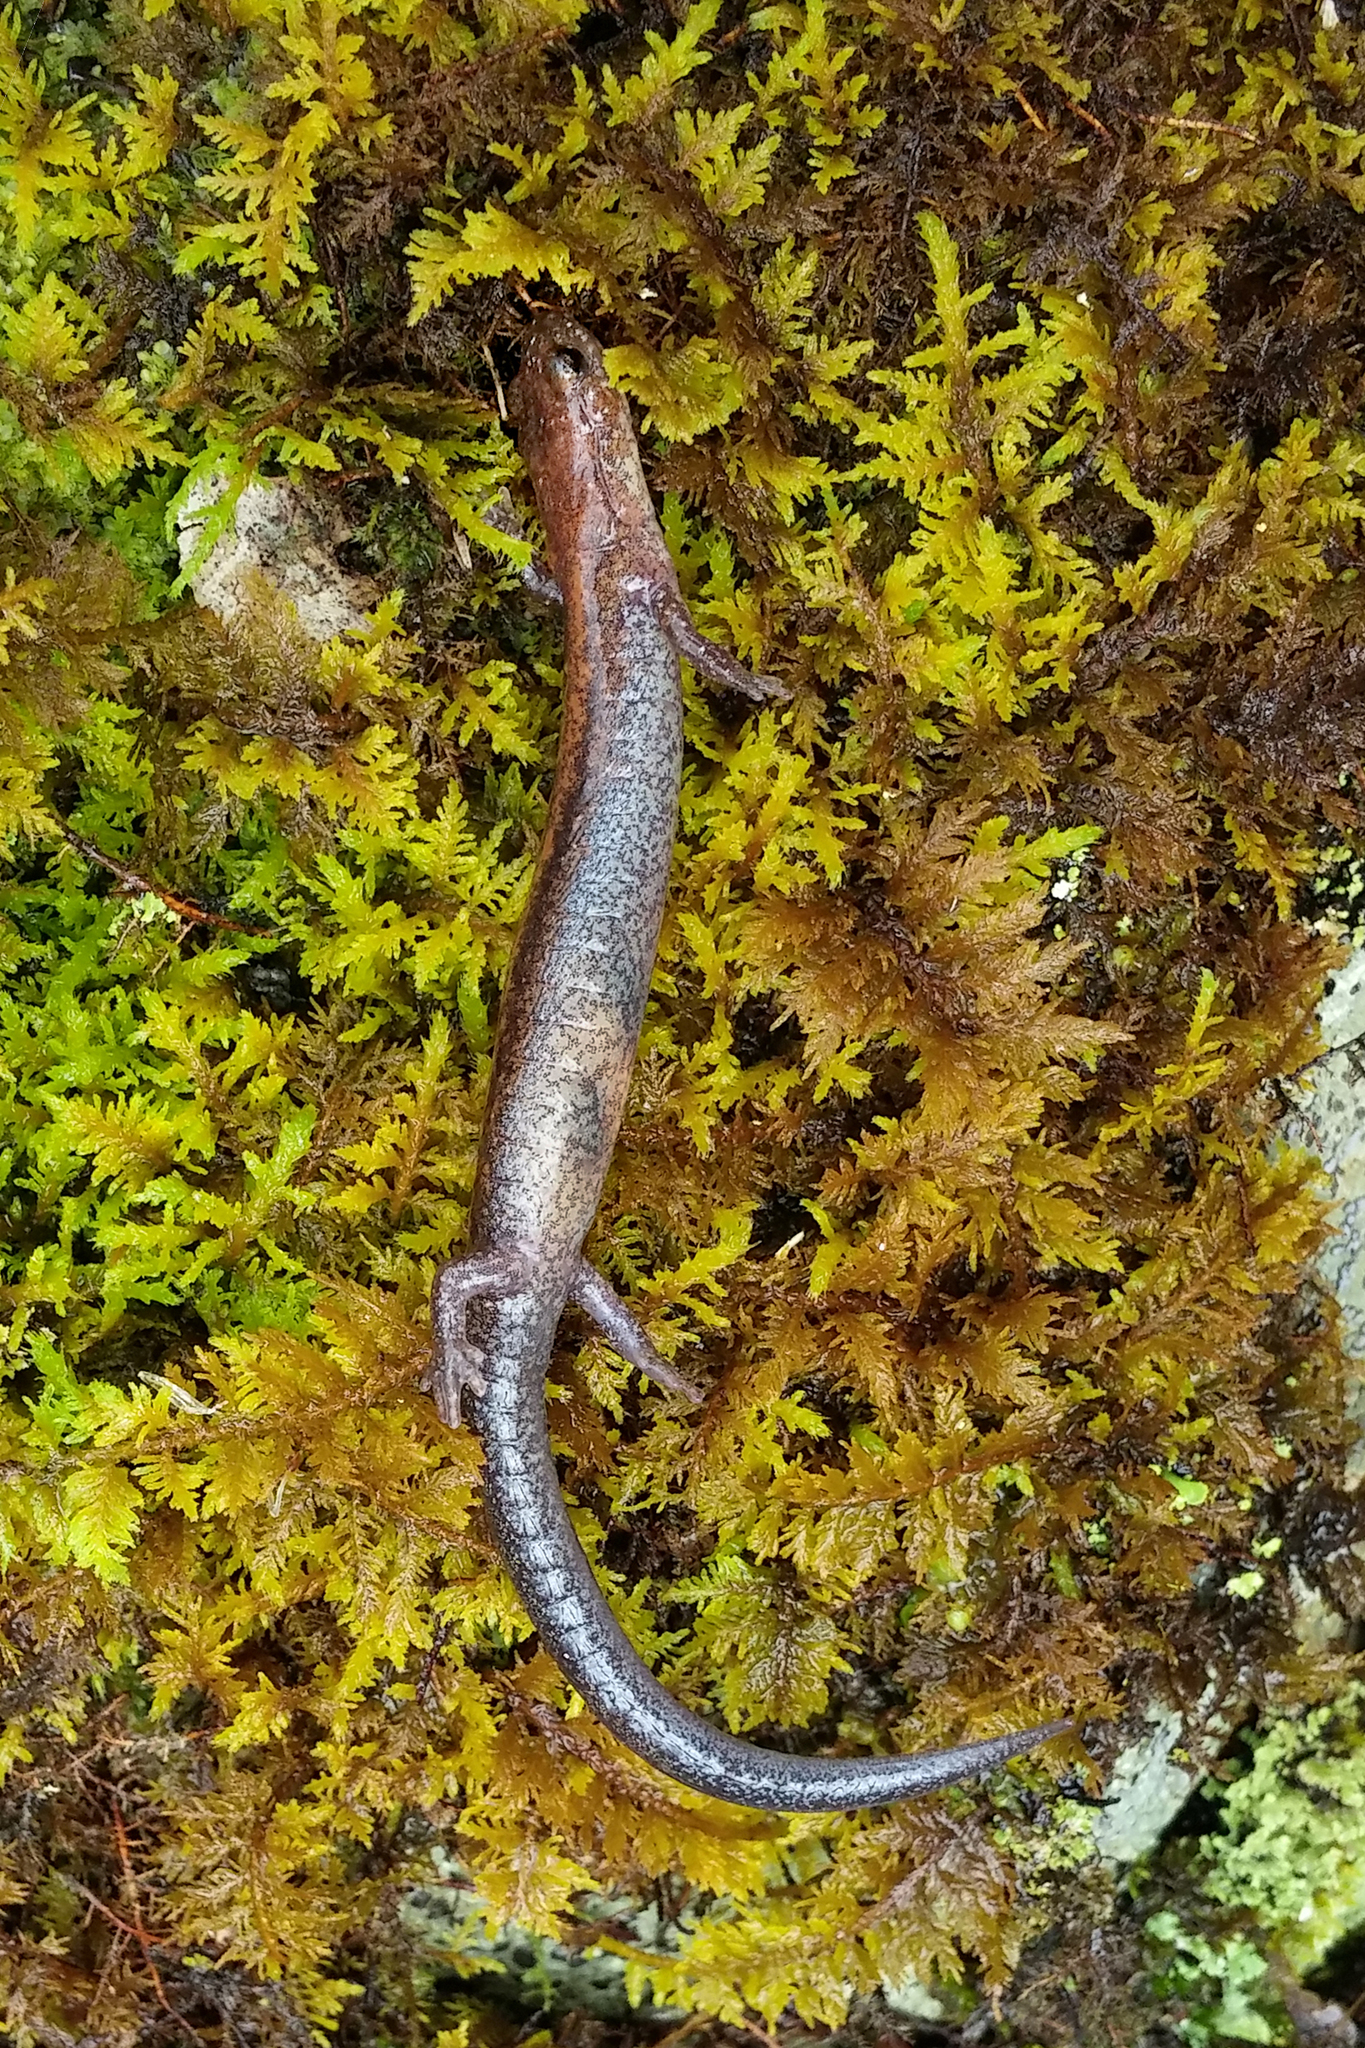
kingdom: Animalia
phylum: Chordata
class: Amphibia
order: Caudata
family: Plethodontidae
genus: Plethodon
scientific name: Plethodon cinereus
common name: Redback salamander
